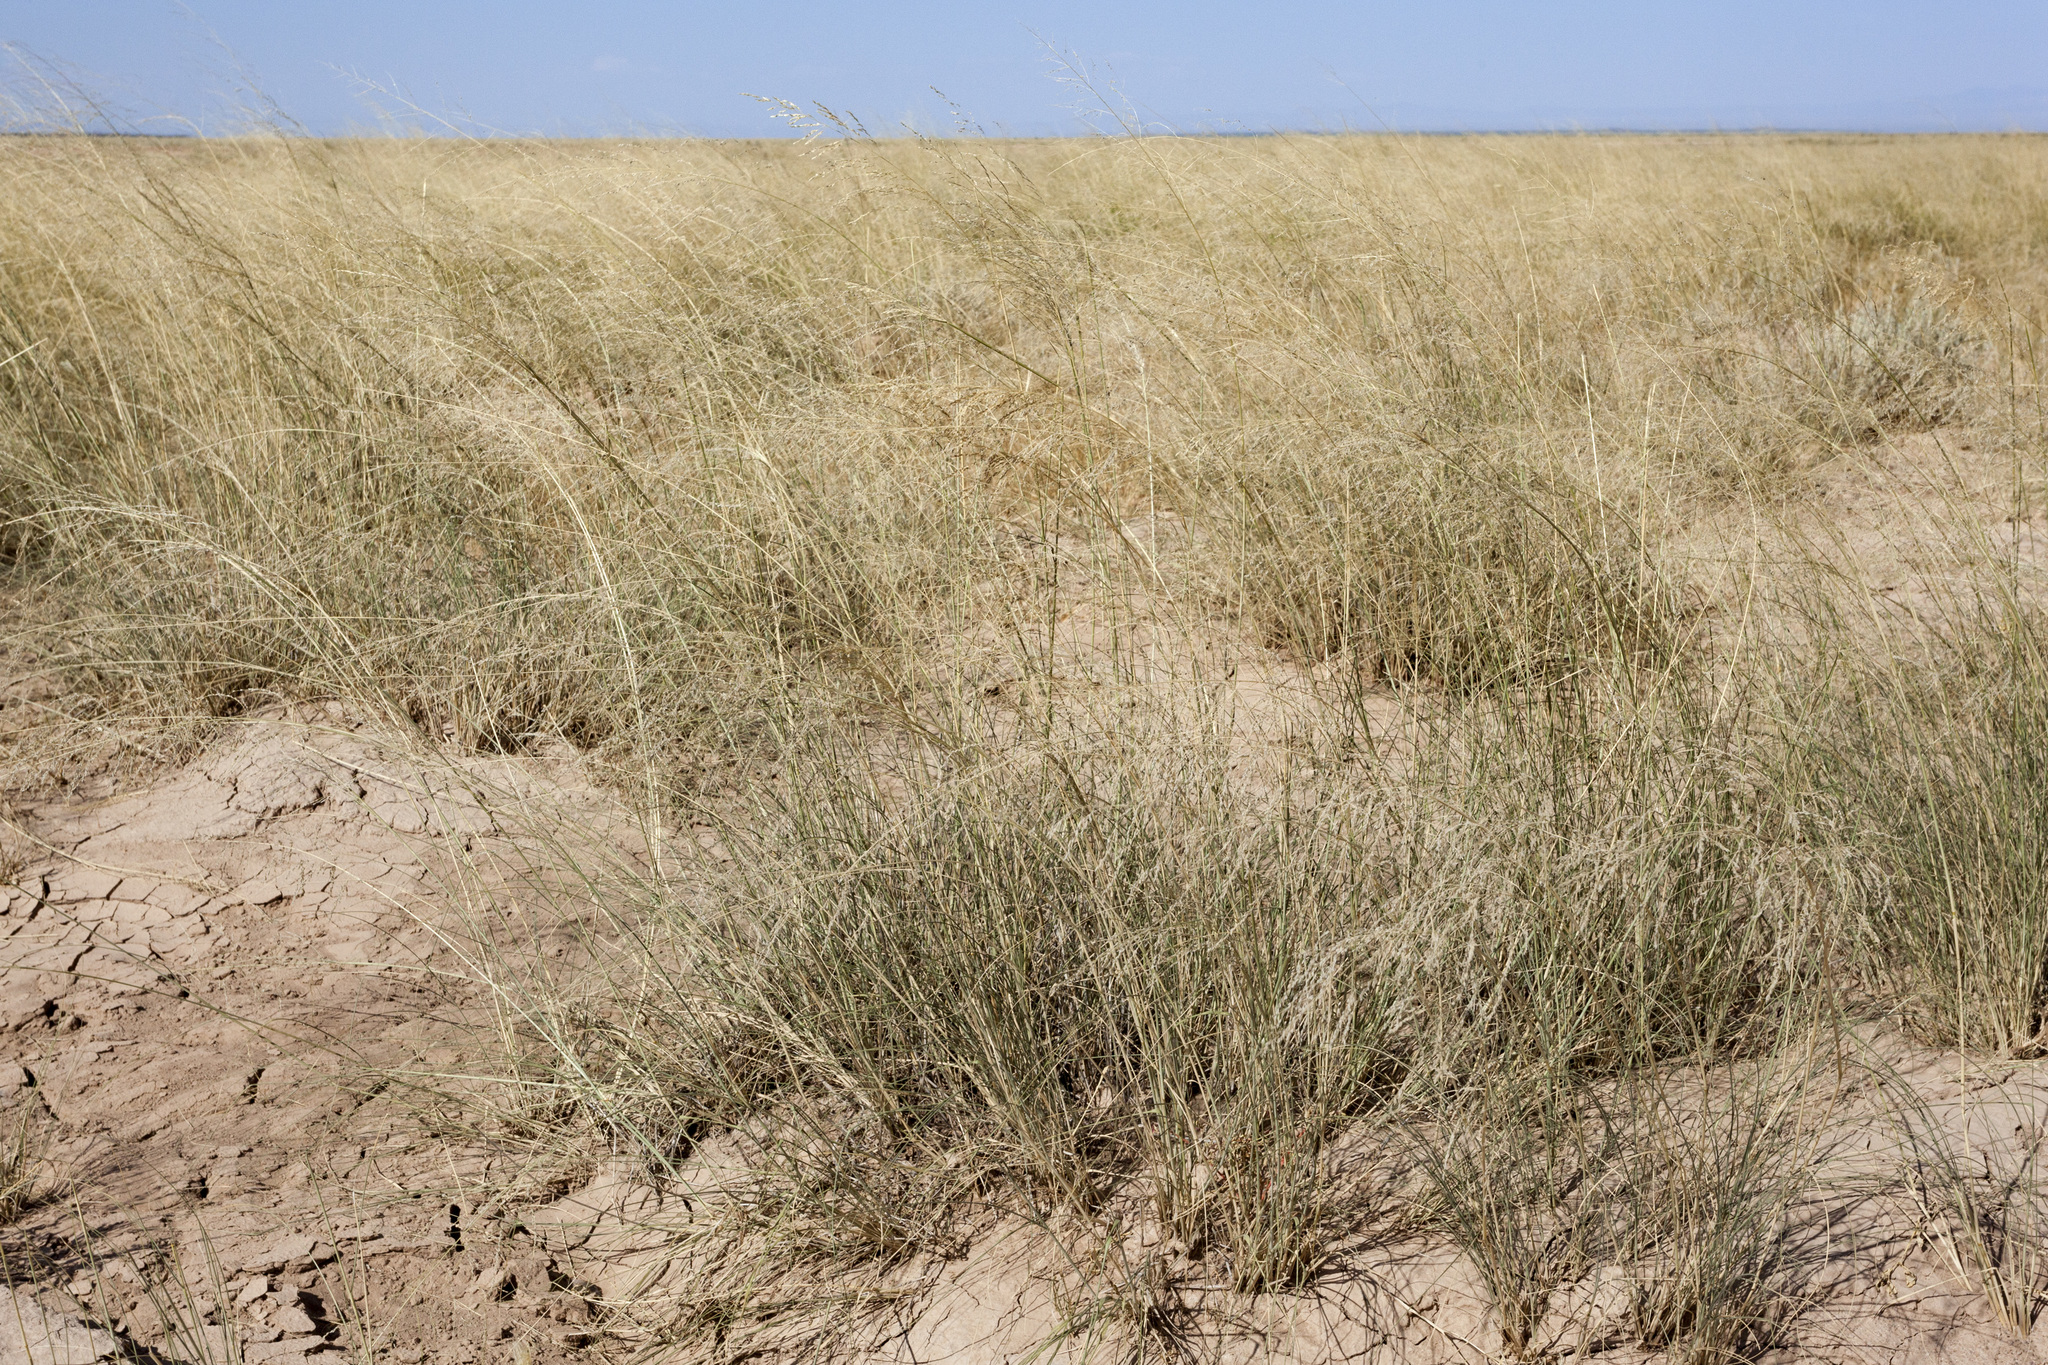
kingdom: Plantae
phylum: Tracheophyta
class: Liliopsida
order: Poales
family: Poaceae
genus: Sporobolus
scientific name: Sporobolus airoides
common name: Alkali sacaton
